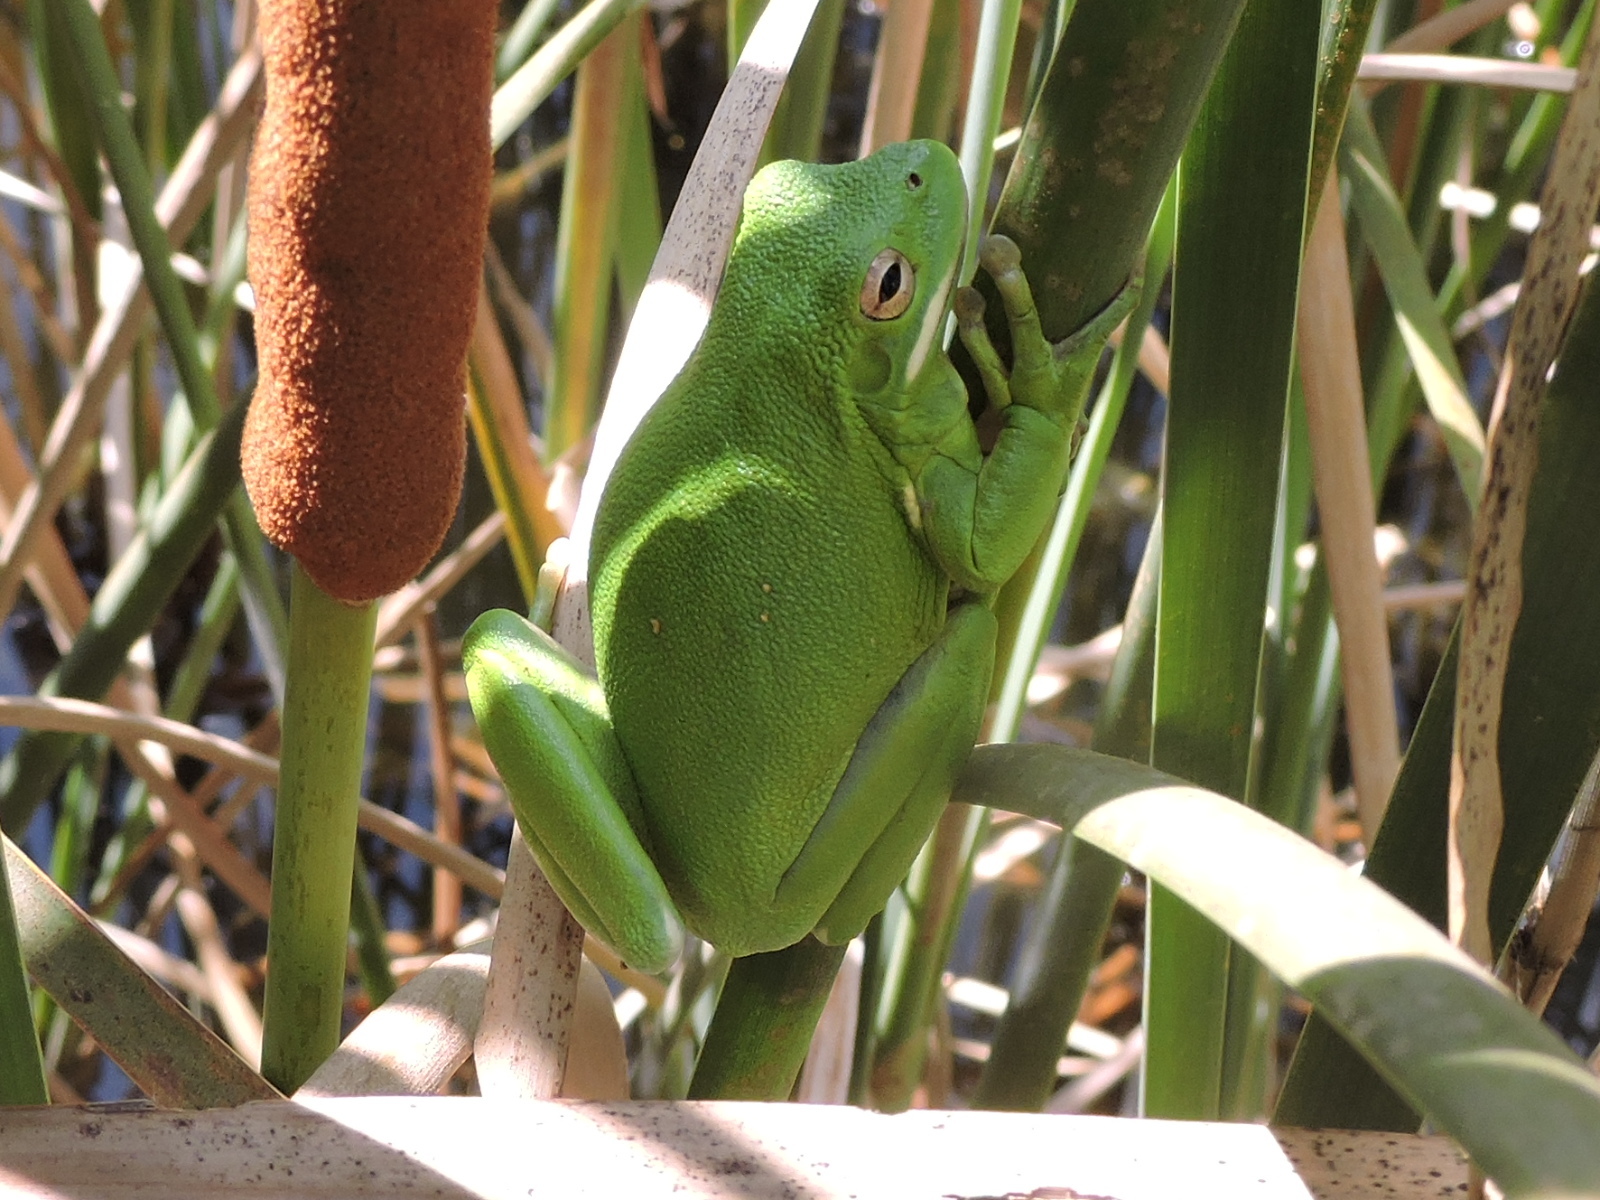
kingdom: Animalia
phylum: Chordata
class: Amphibia
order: Anura
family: Hylidae
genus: Dryophytes
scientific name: Dryophytes cinereus
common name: Green treefrog
